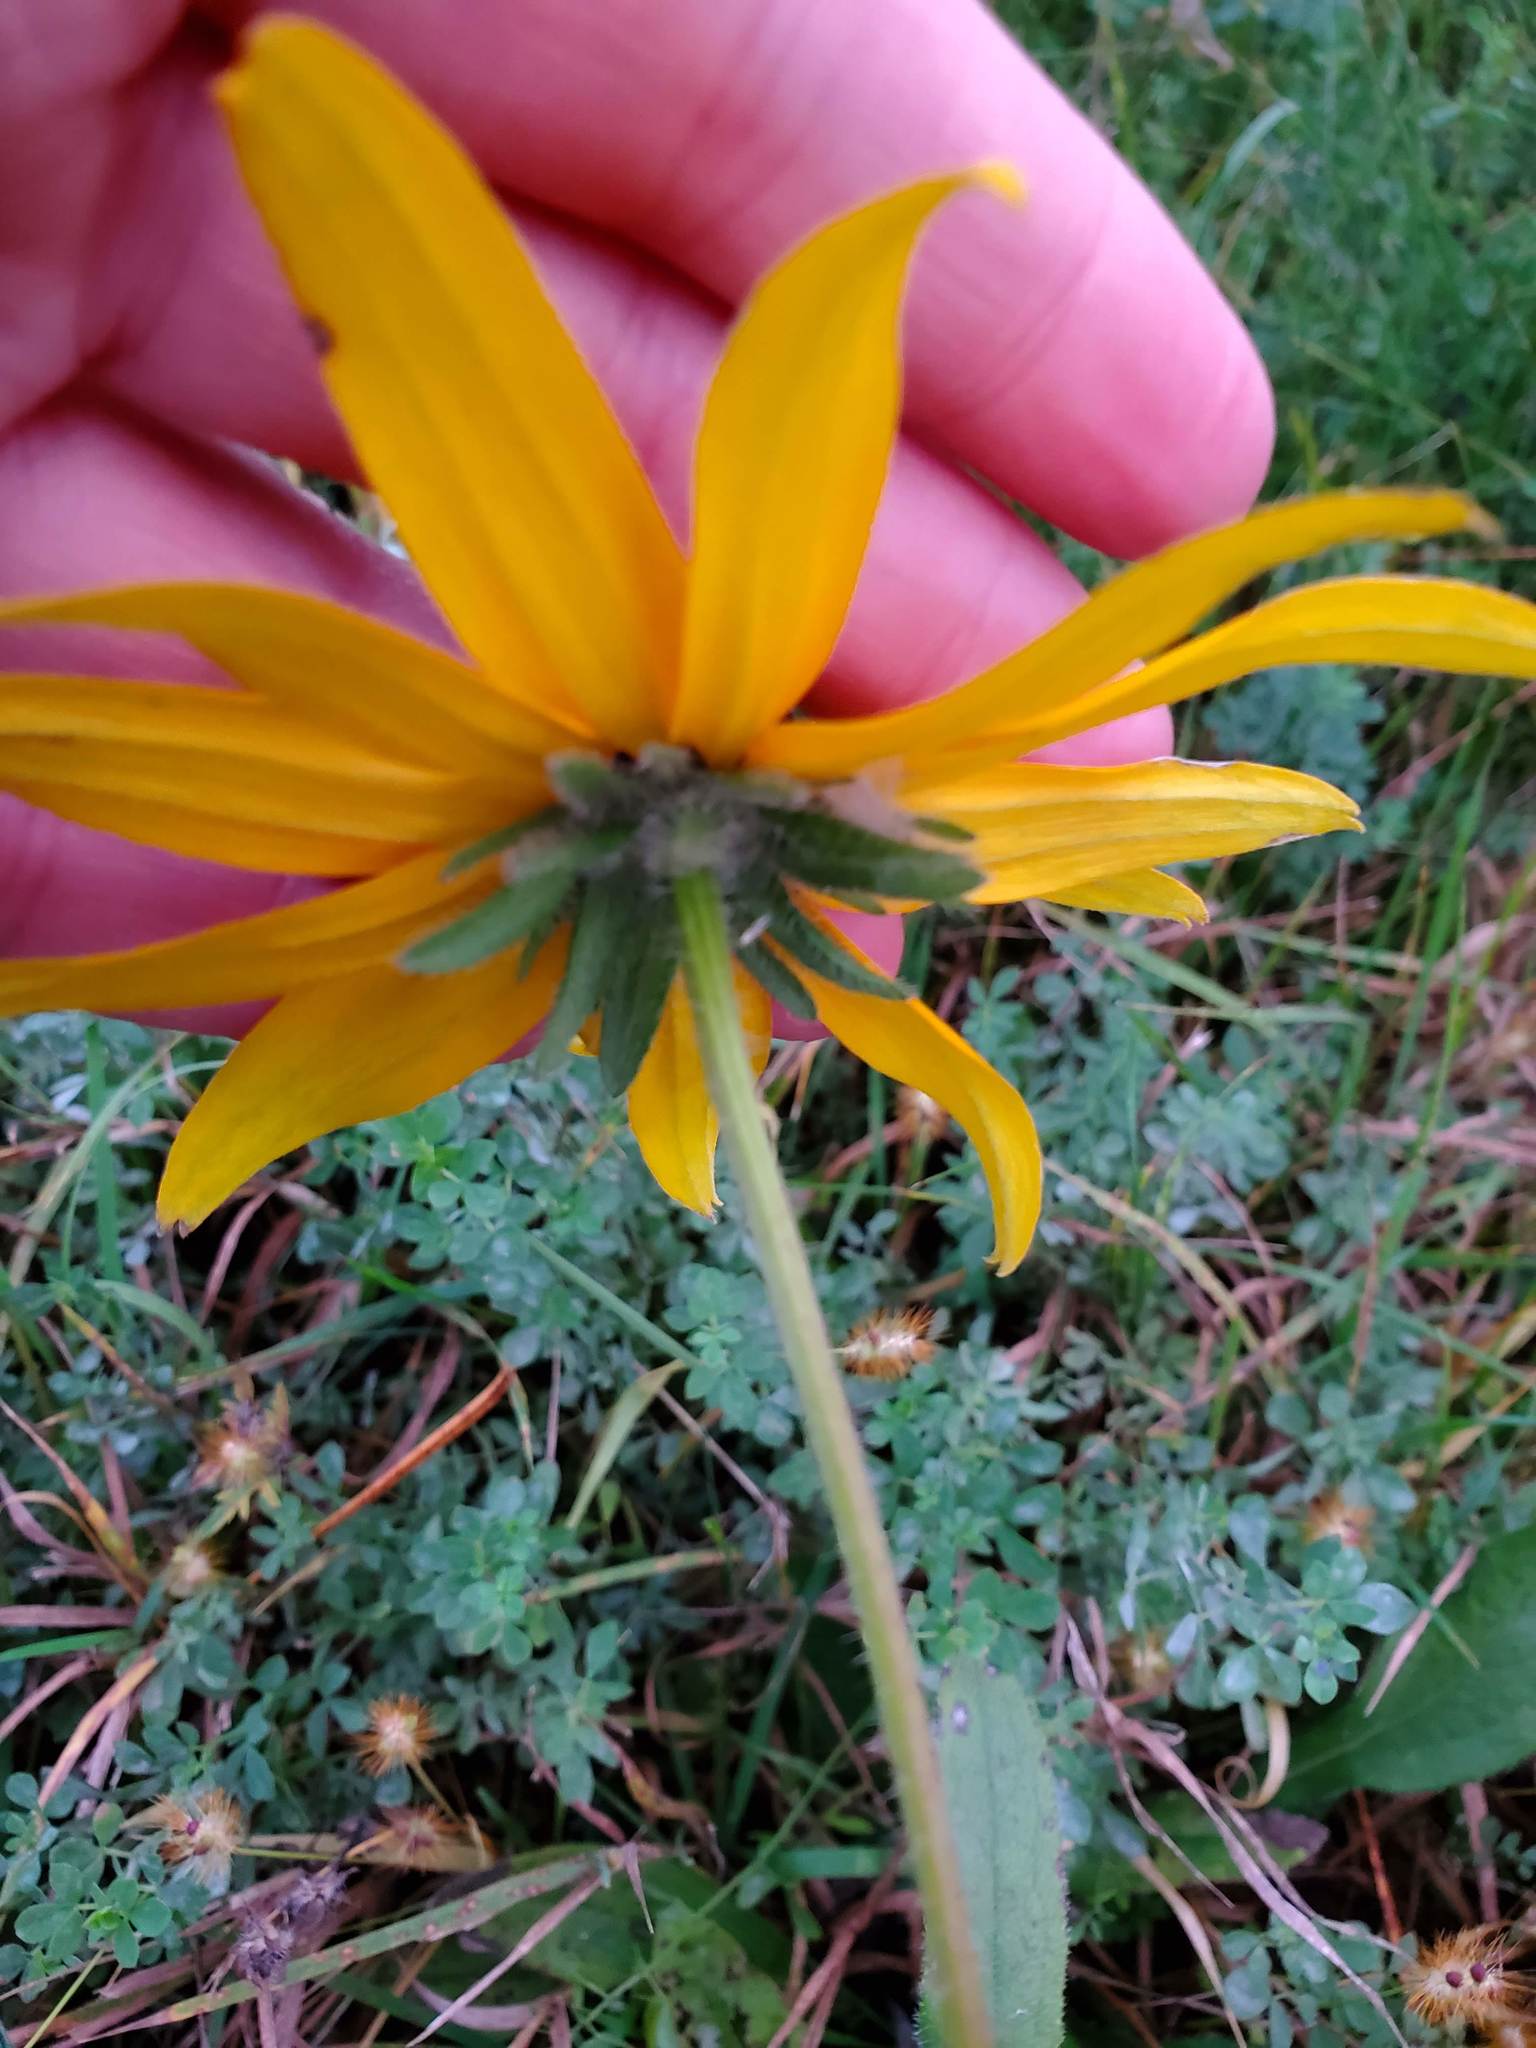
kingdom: Plantae
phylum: Tracheophyta
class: Magnoliopsida
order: Asterales
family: Asteraceae
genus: Rudbeckia
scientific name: Rudbeckia hirta
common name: Black-eyed-susan
